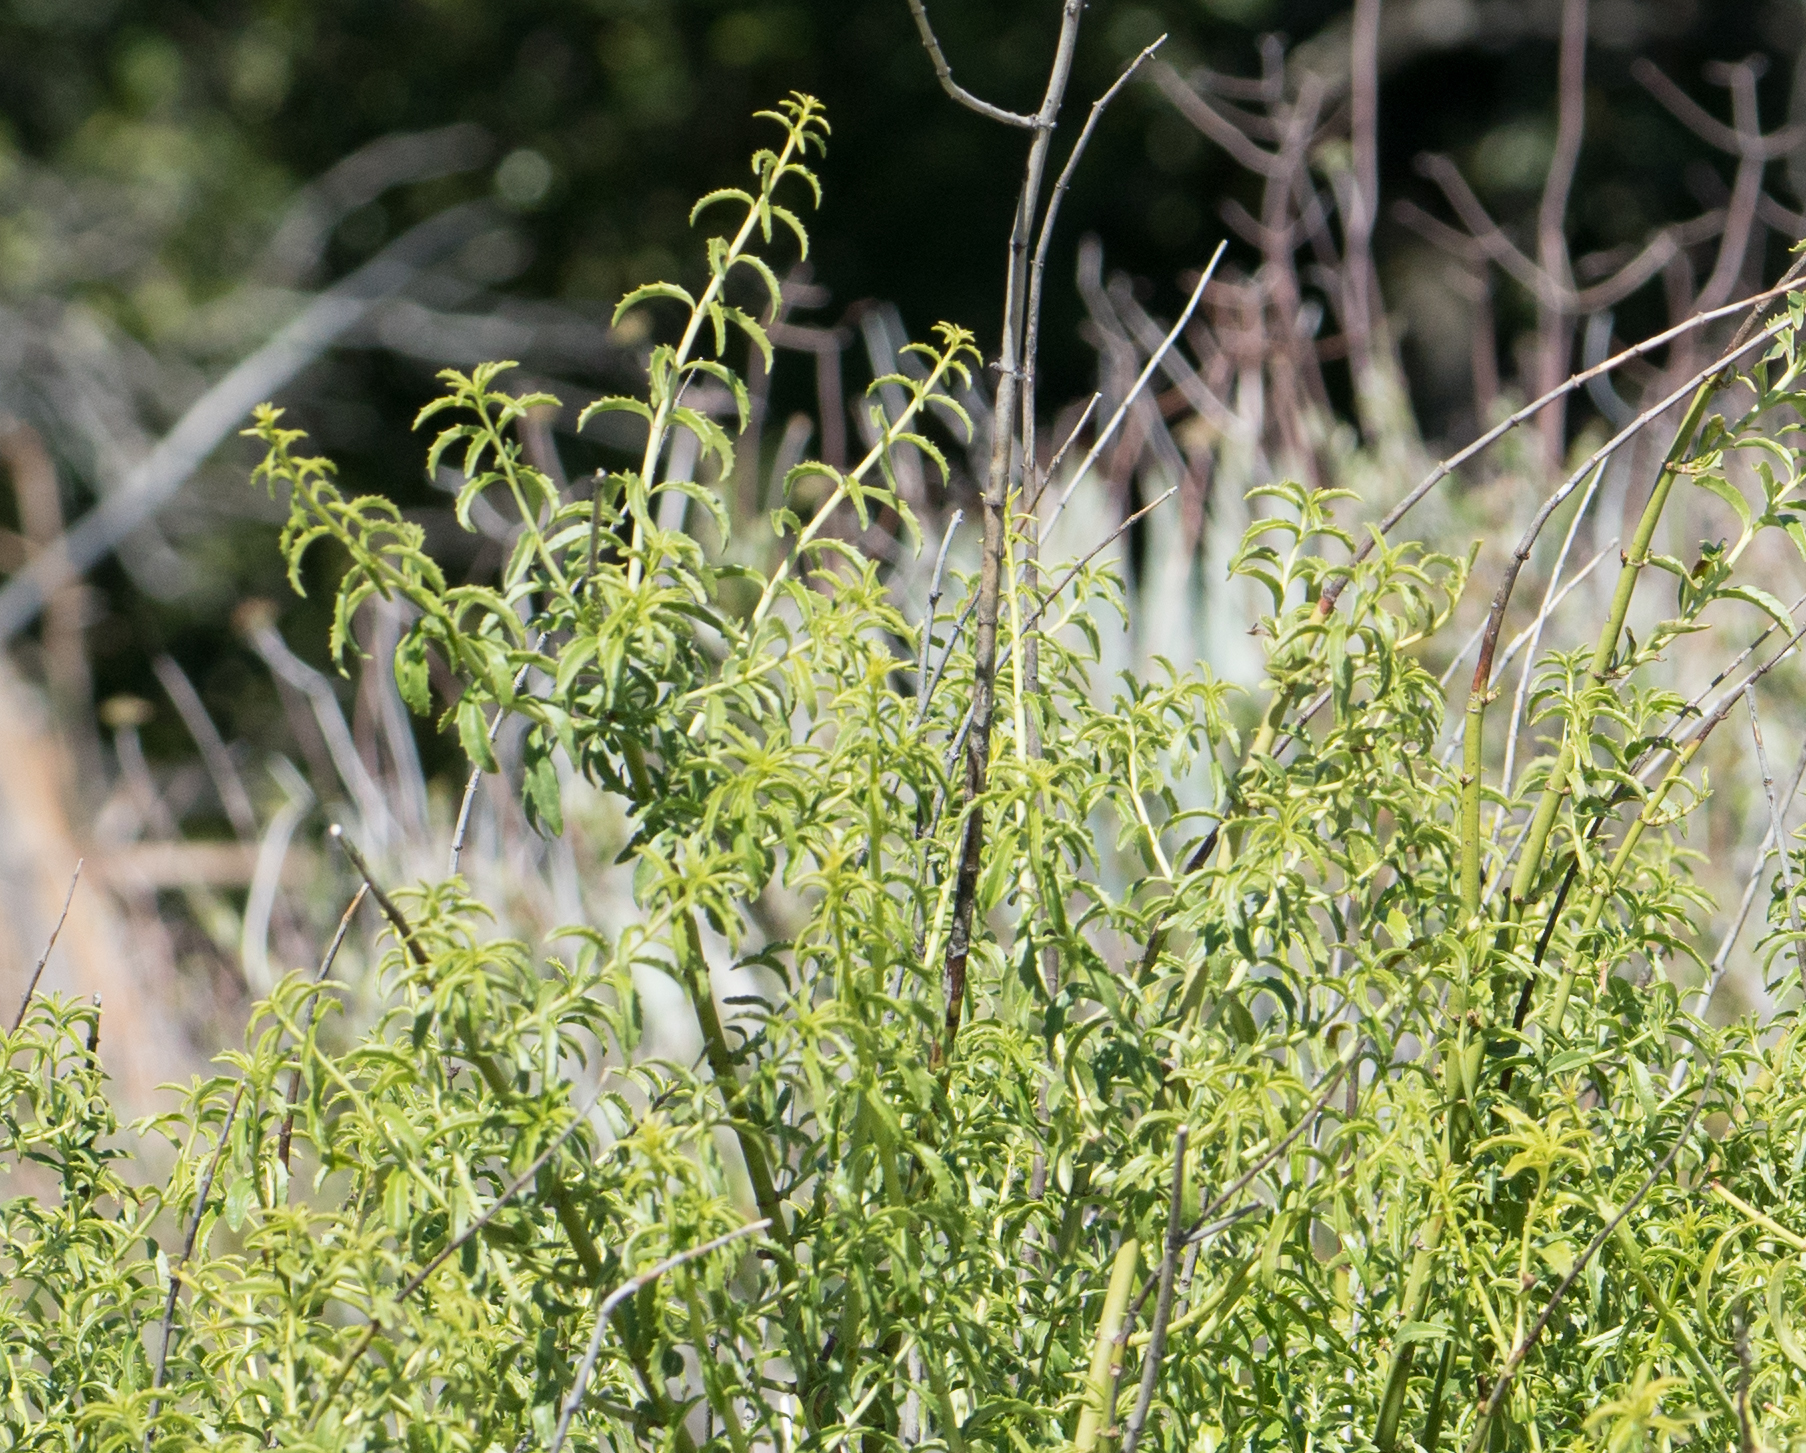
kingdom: Plantae
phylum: Tracheophyta
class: Magnoliopsida
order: Lamiales
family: Plantaginaceae
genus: Keckiella
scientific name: Keckiella ternata
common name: Scarlet keckiella
